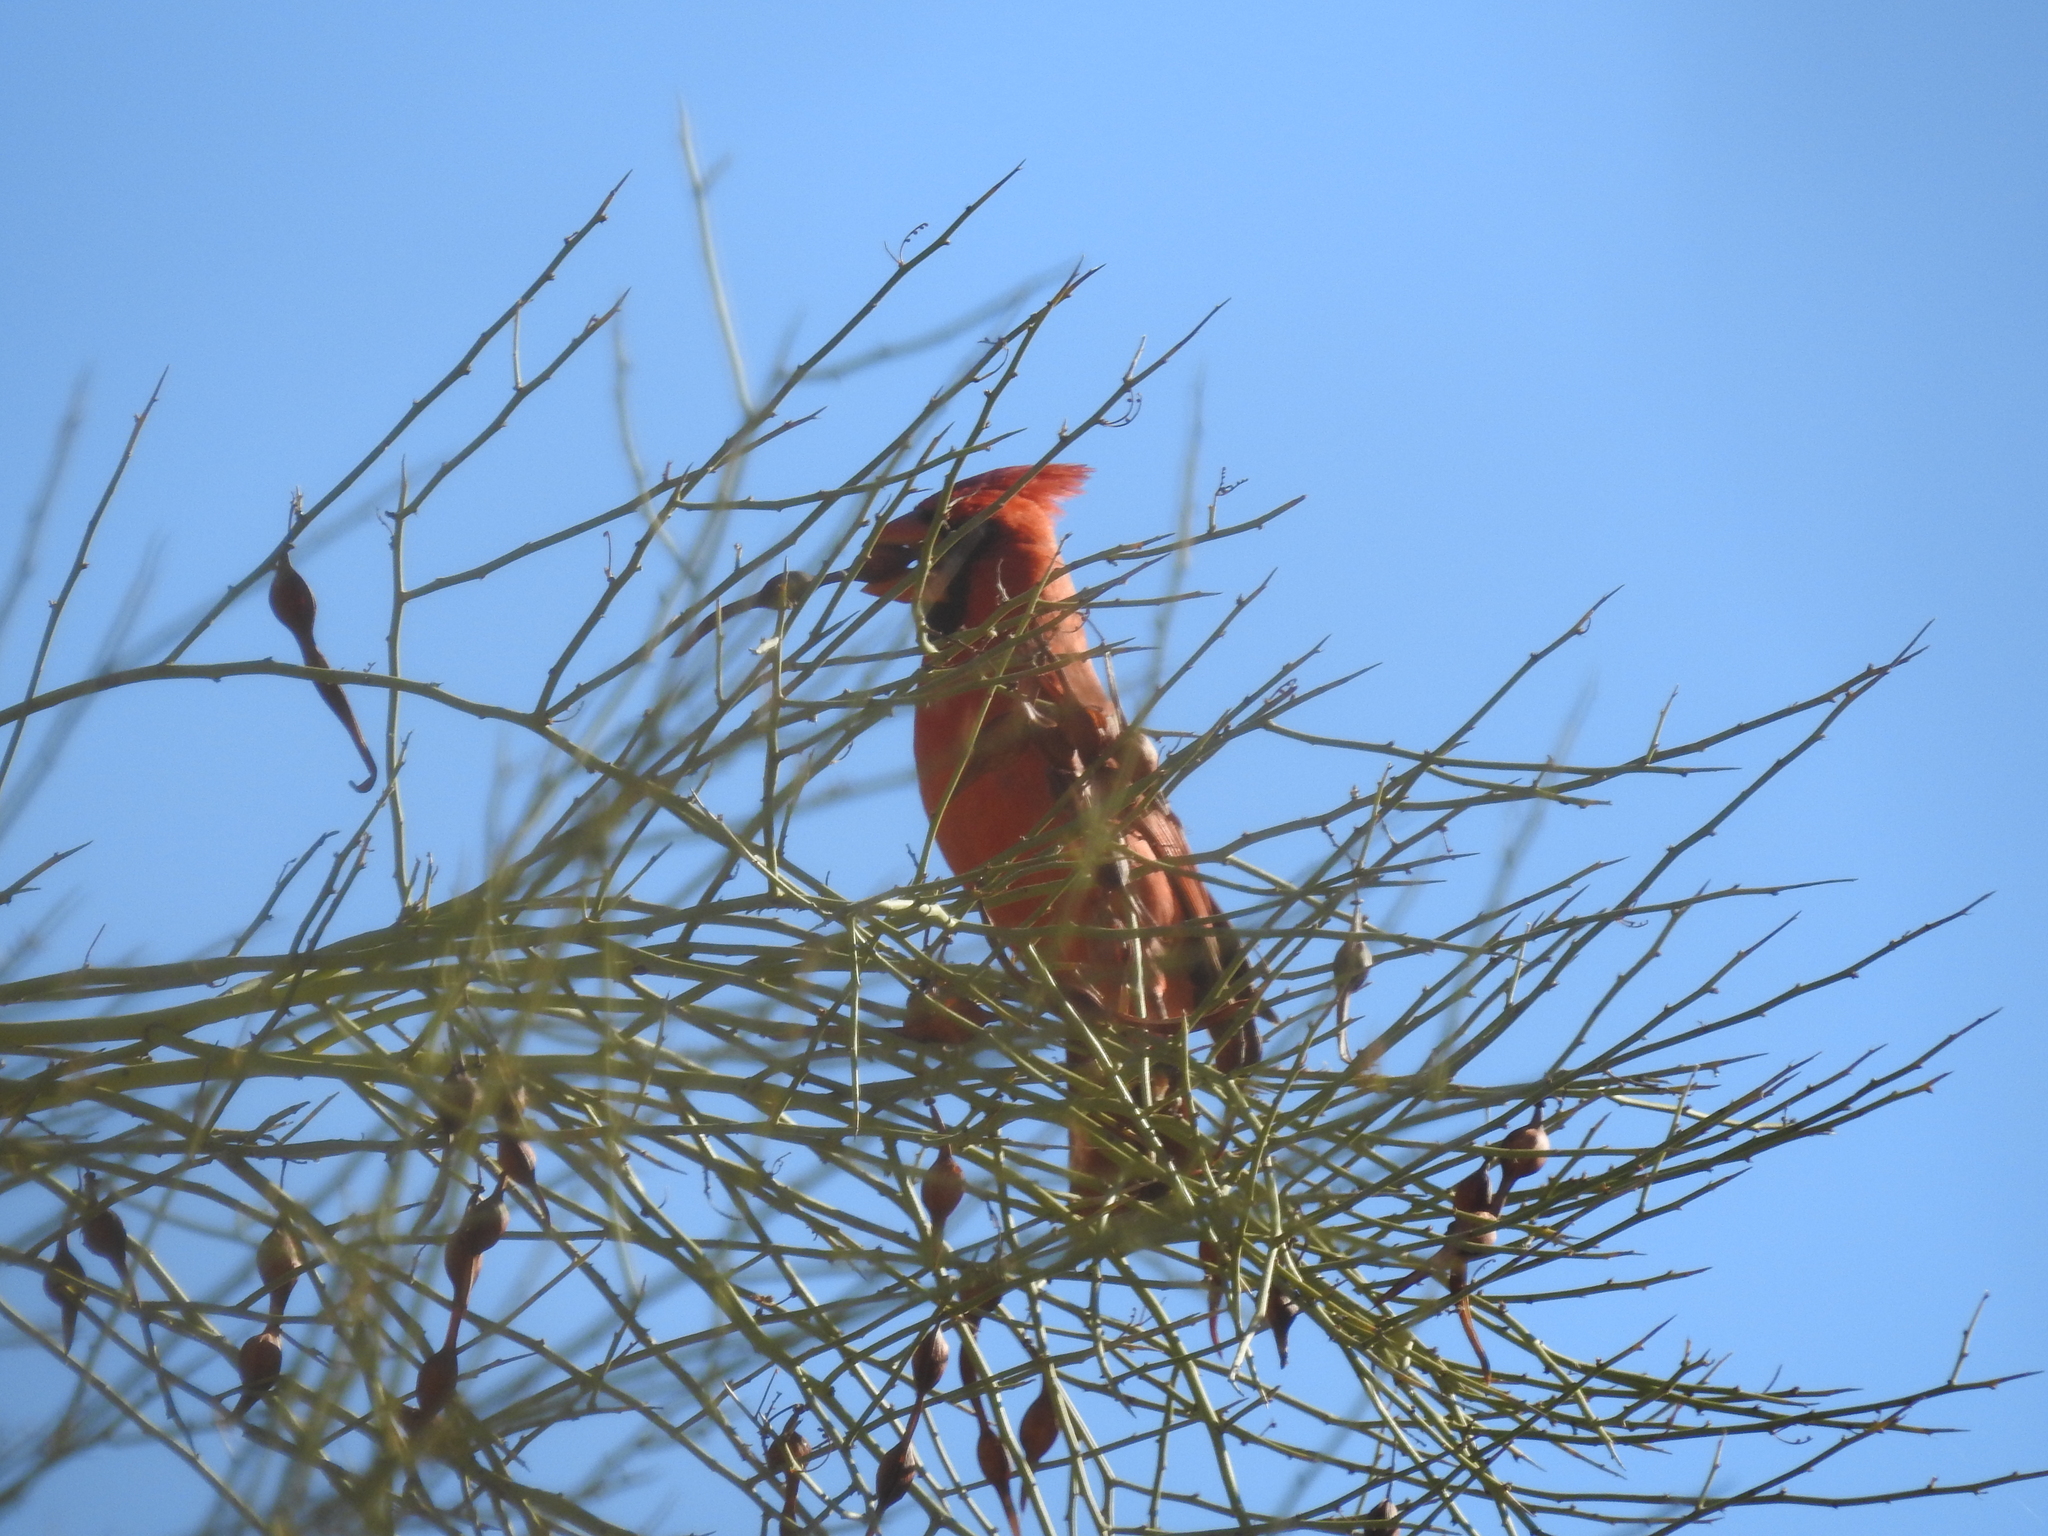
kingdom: Animalia
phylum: Chordata
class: Aves
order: Passeriformes
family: Cardinalidae
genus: Cardinalis
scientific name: Cardinalis cardinalis
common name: Northern cardinal
